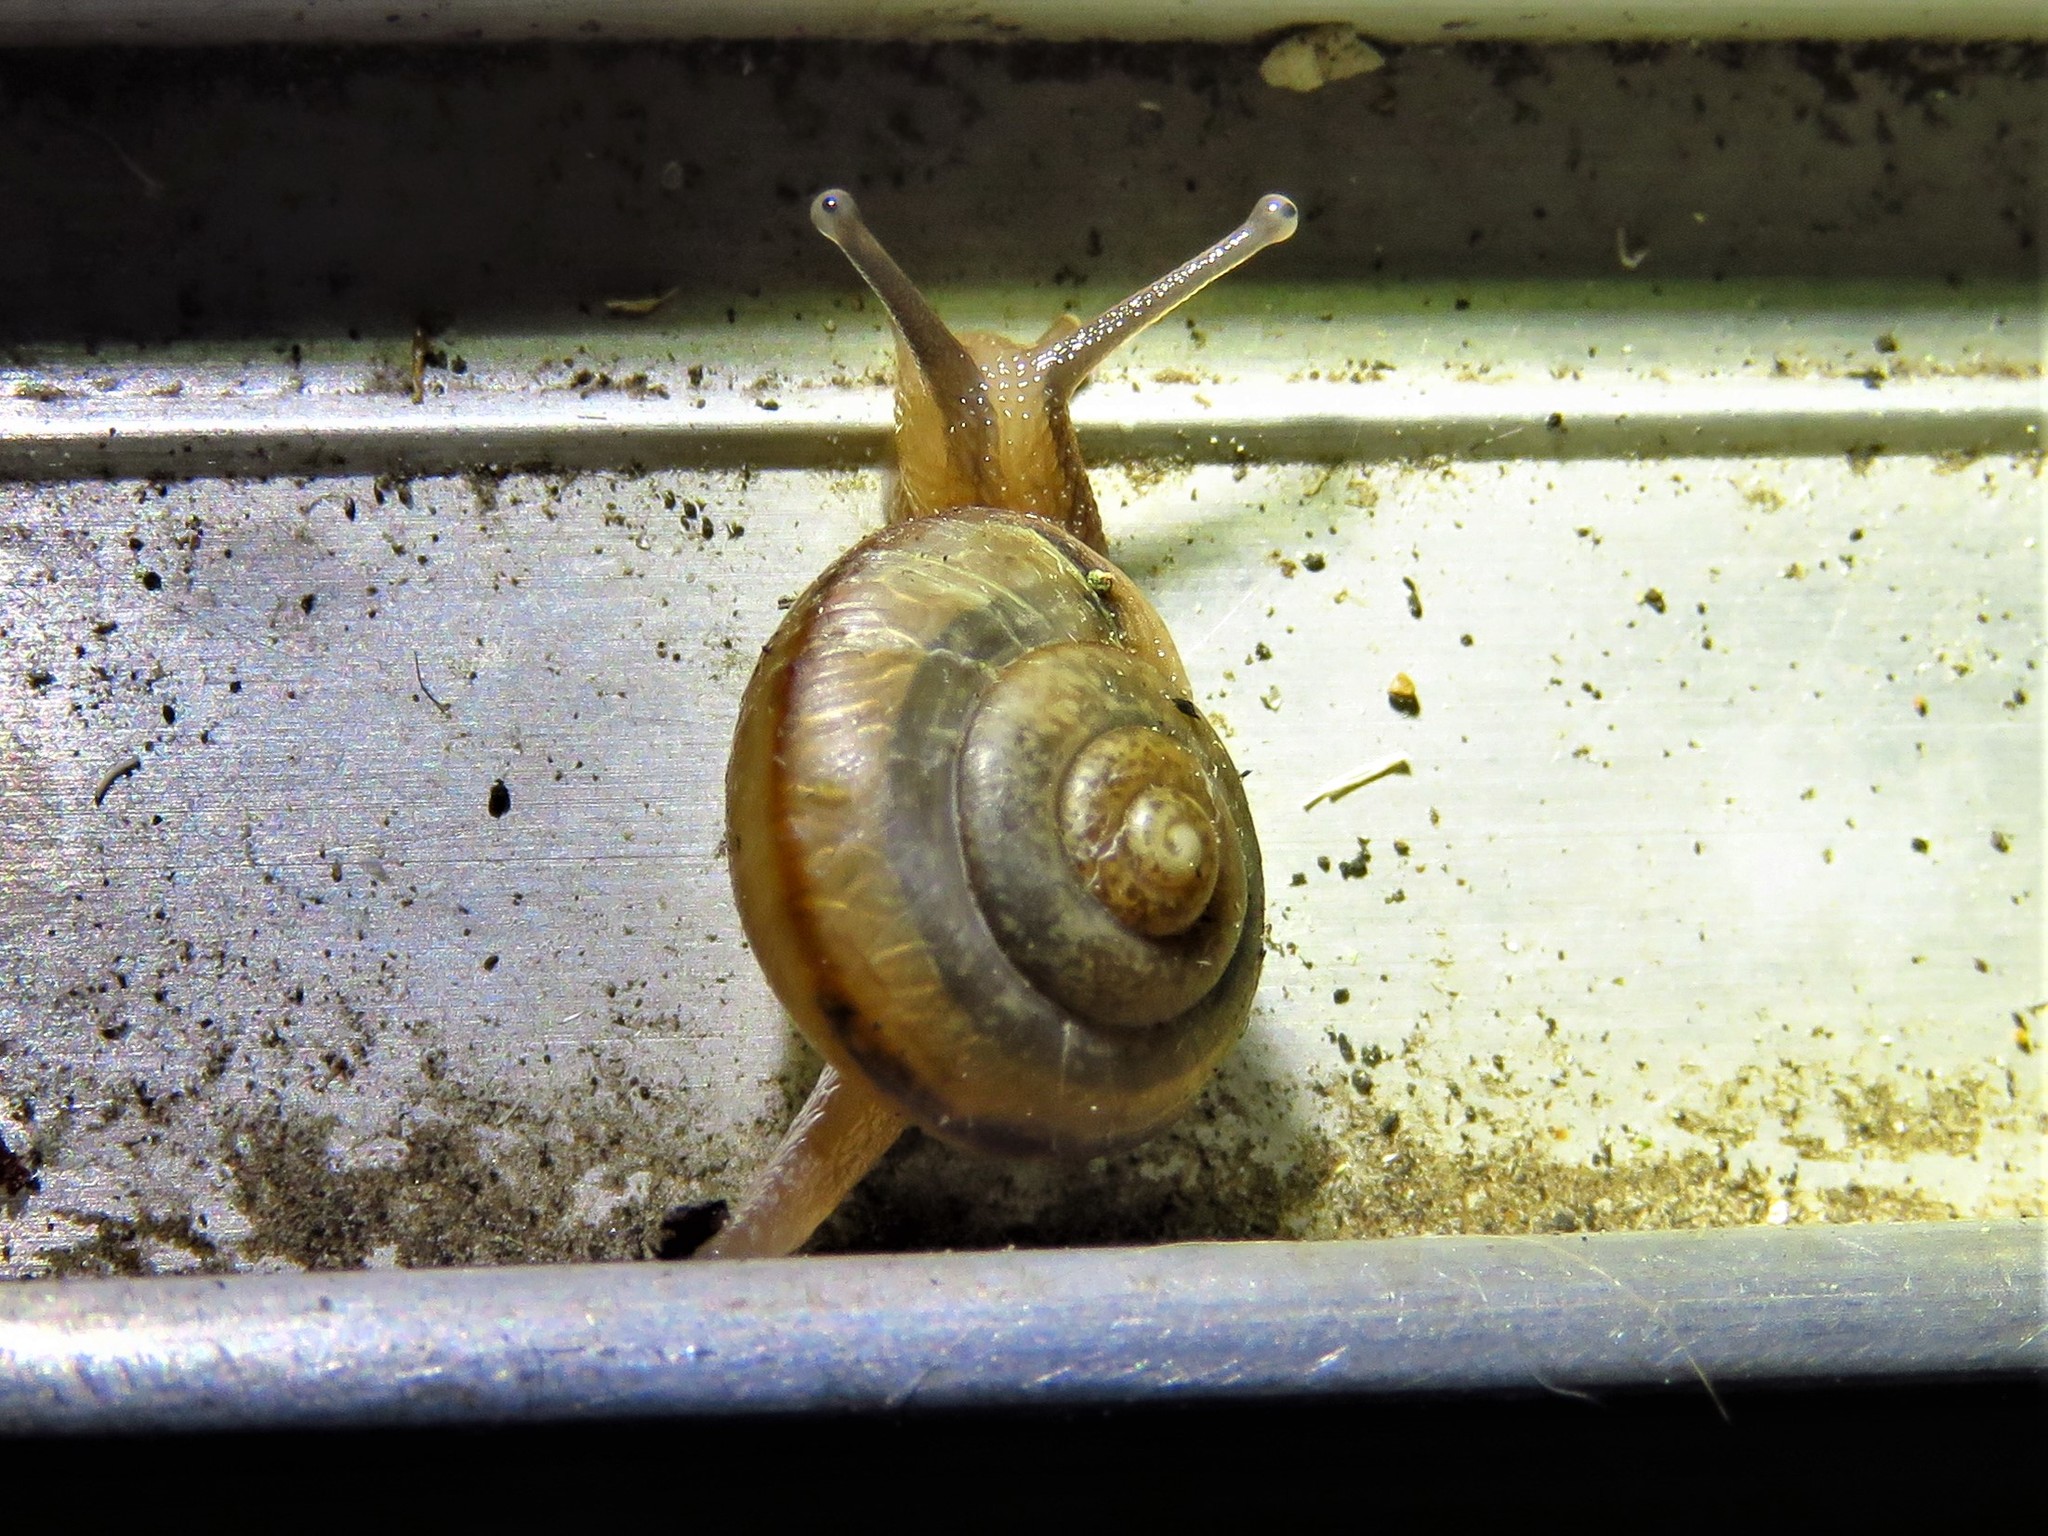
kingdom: Animalia
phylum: Mollusca
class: Gastropoda
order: Stylommatophora
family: Camaenidae
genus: Bradybaena
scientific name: Bradybaena similaris
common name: Asian trampsnail
